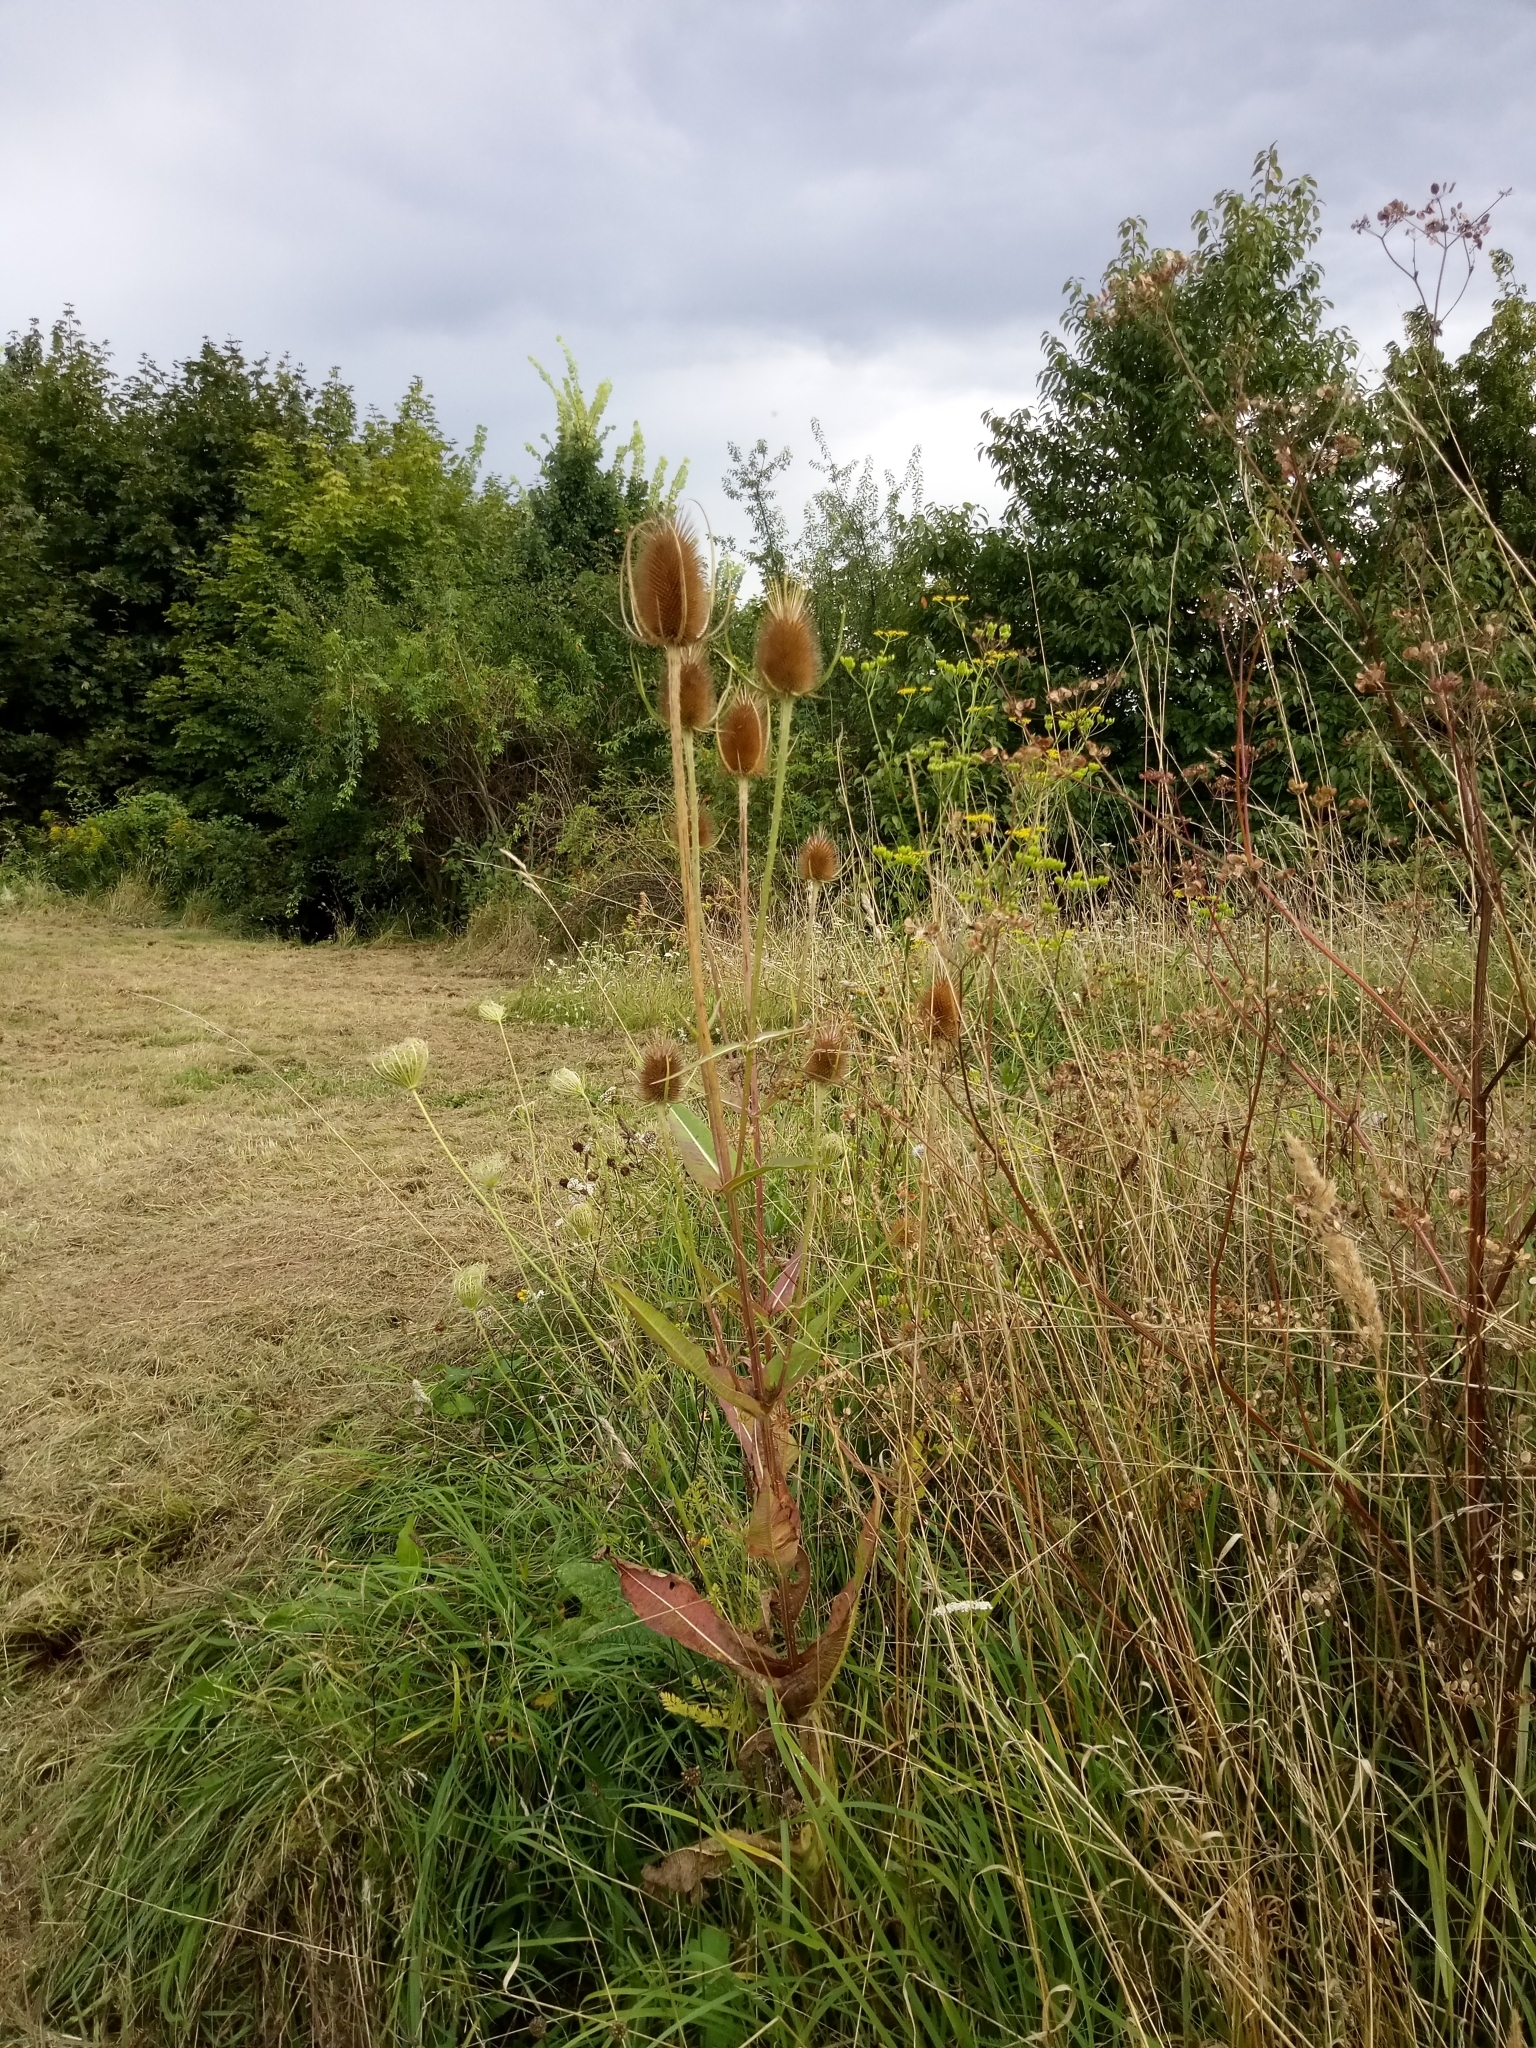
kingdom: Plantae
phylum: Tracheophyta
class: Magnoliopsida
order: Dipsacales
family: Caprifoliaceae
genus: Dipsacus
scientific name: Dipsacus fullonum
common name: Teasel
